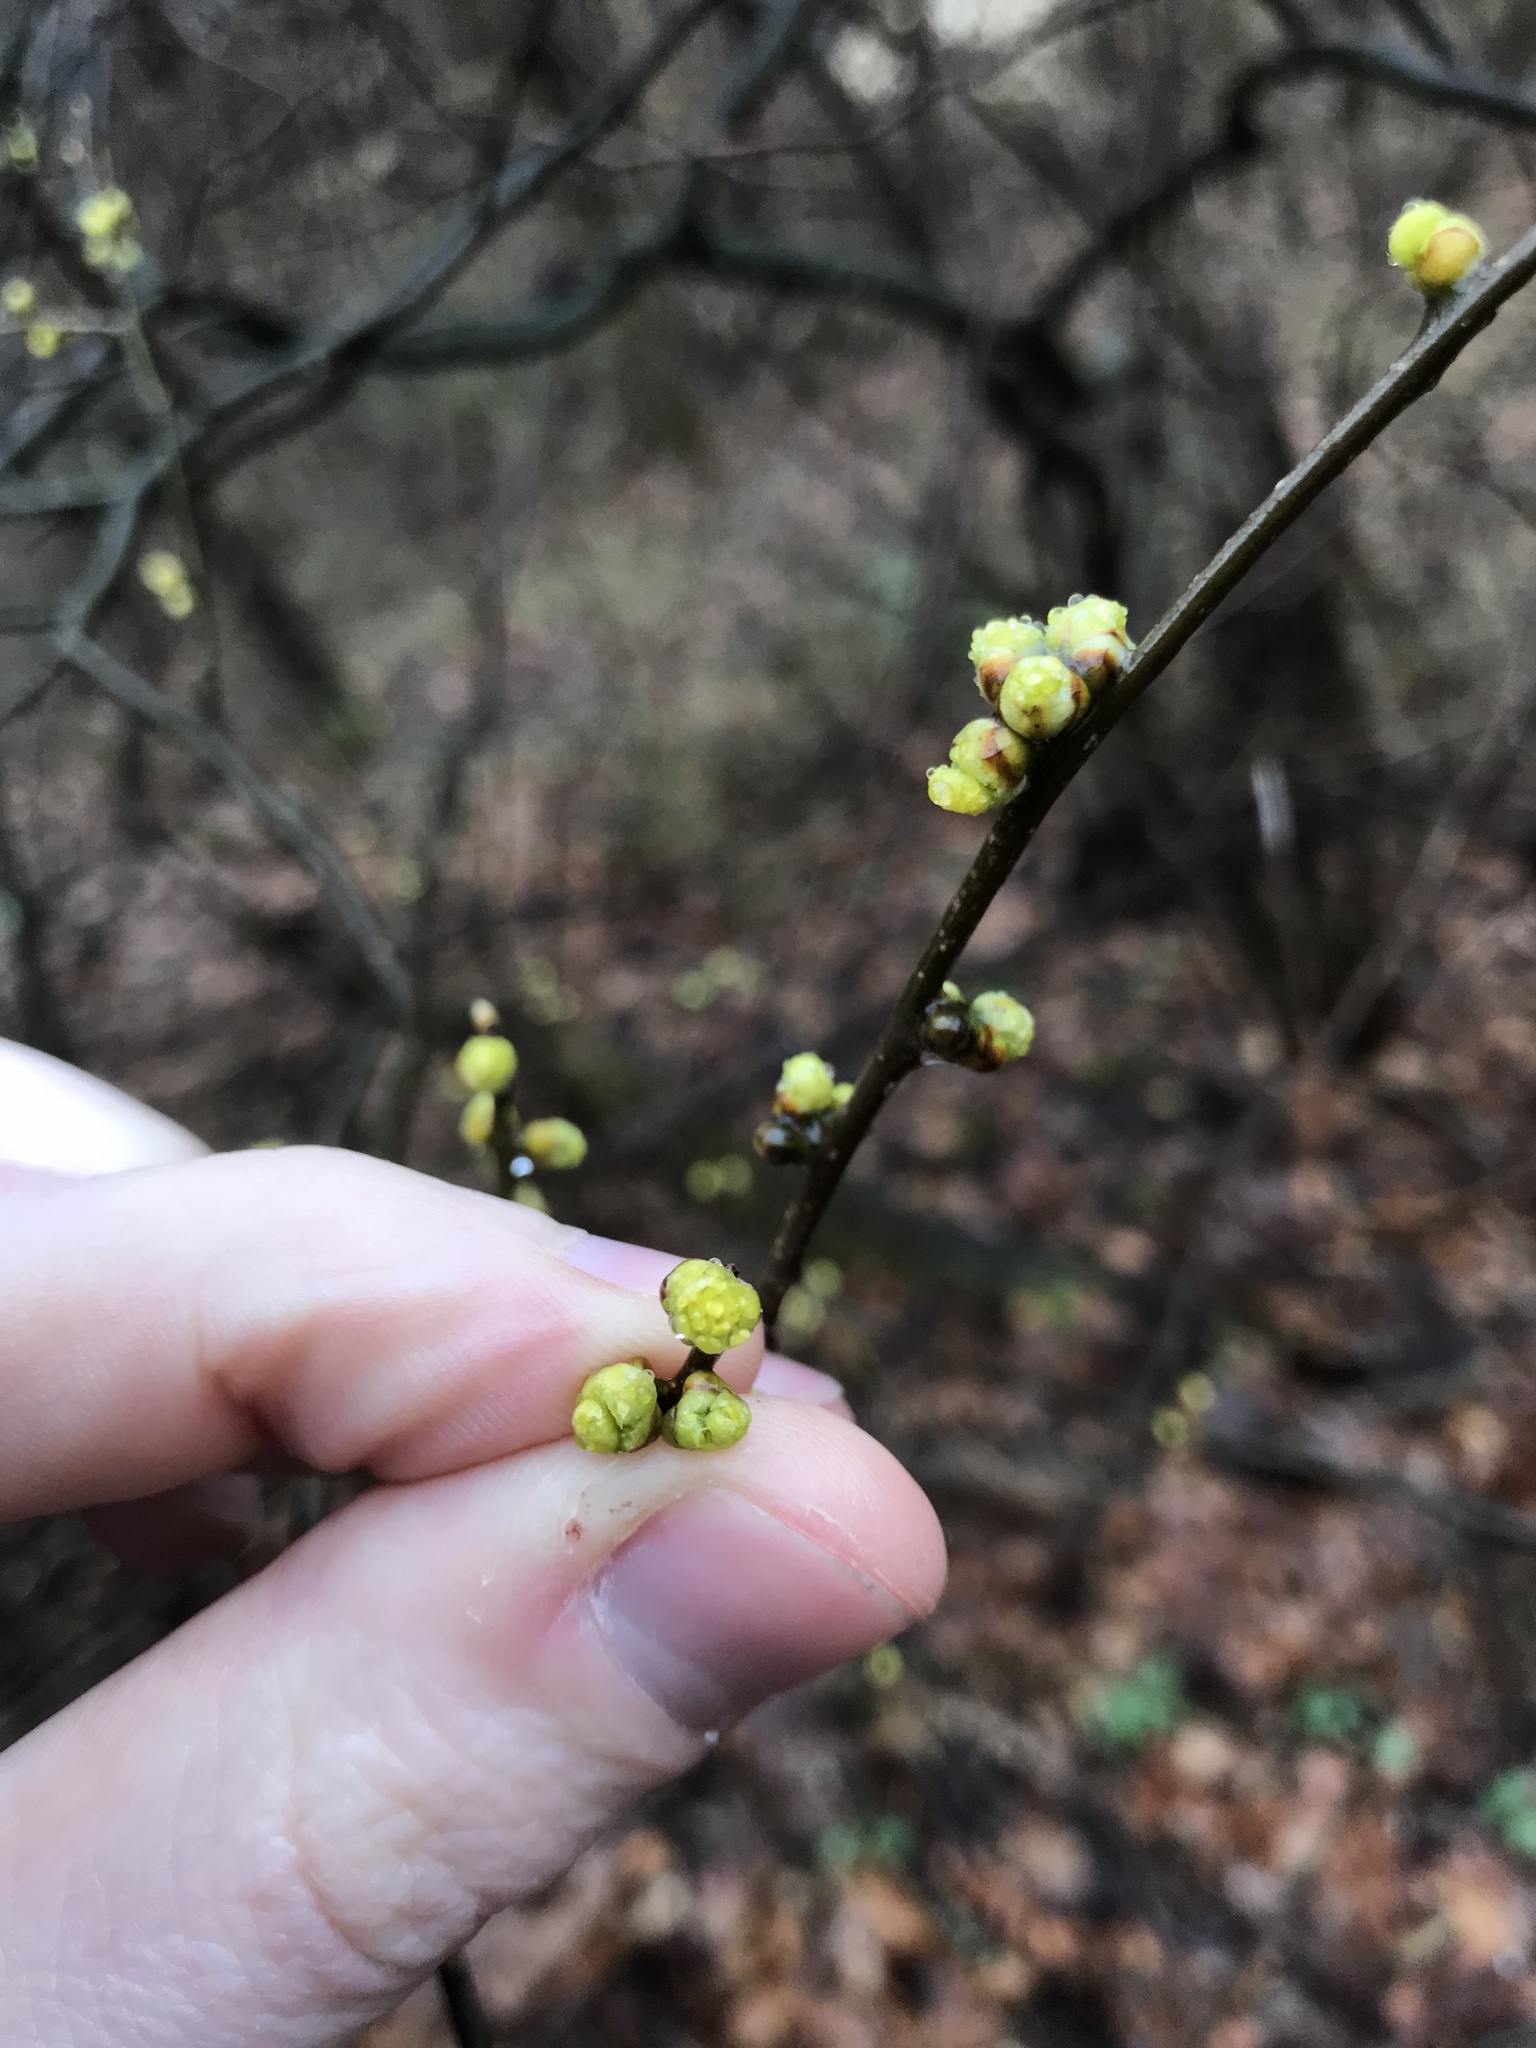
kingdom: Plantae
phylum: Tracheophyta
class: Magnoliopsida
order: Laurales
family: Lauraceae
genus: Lindera
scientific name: Lindera benzoin
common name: Spicebush
